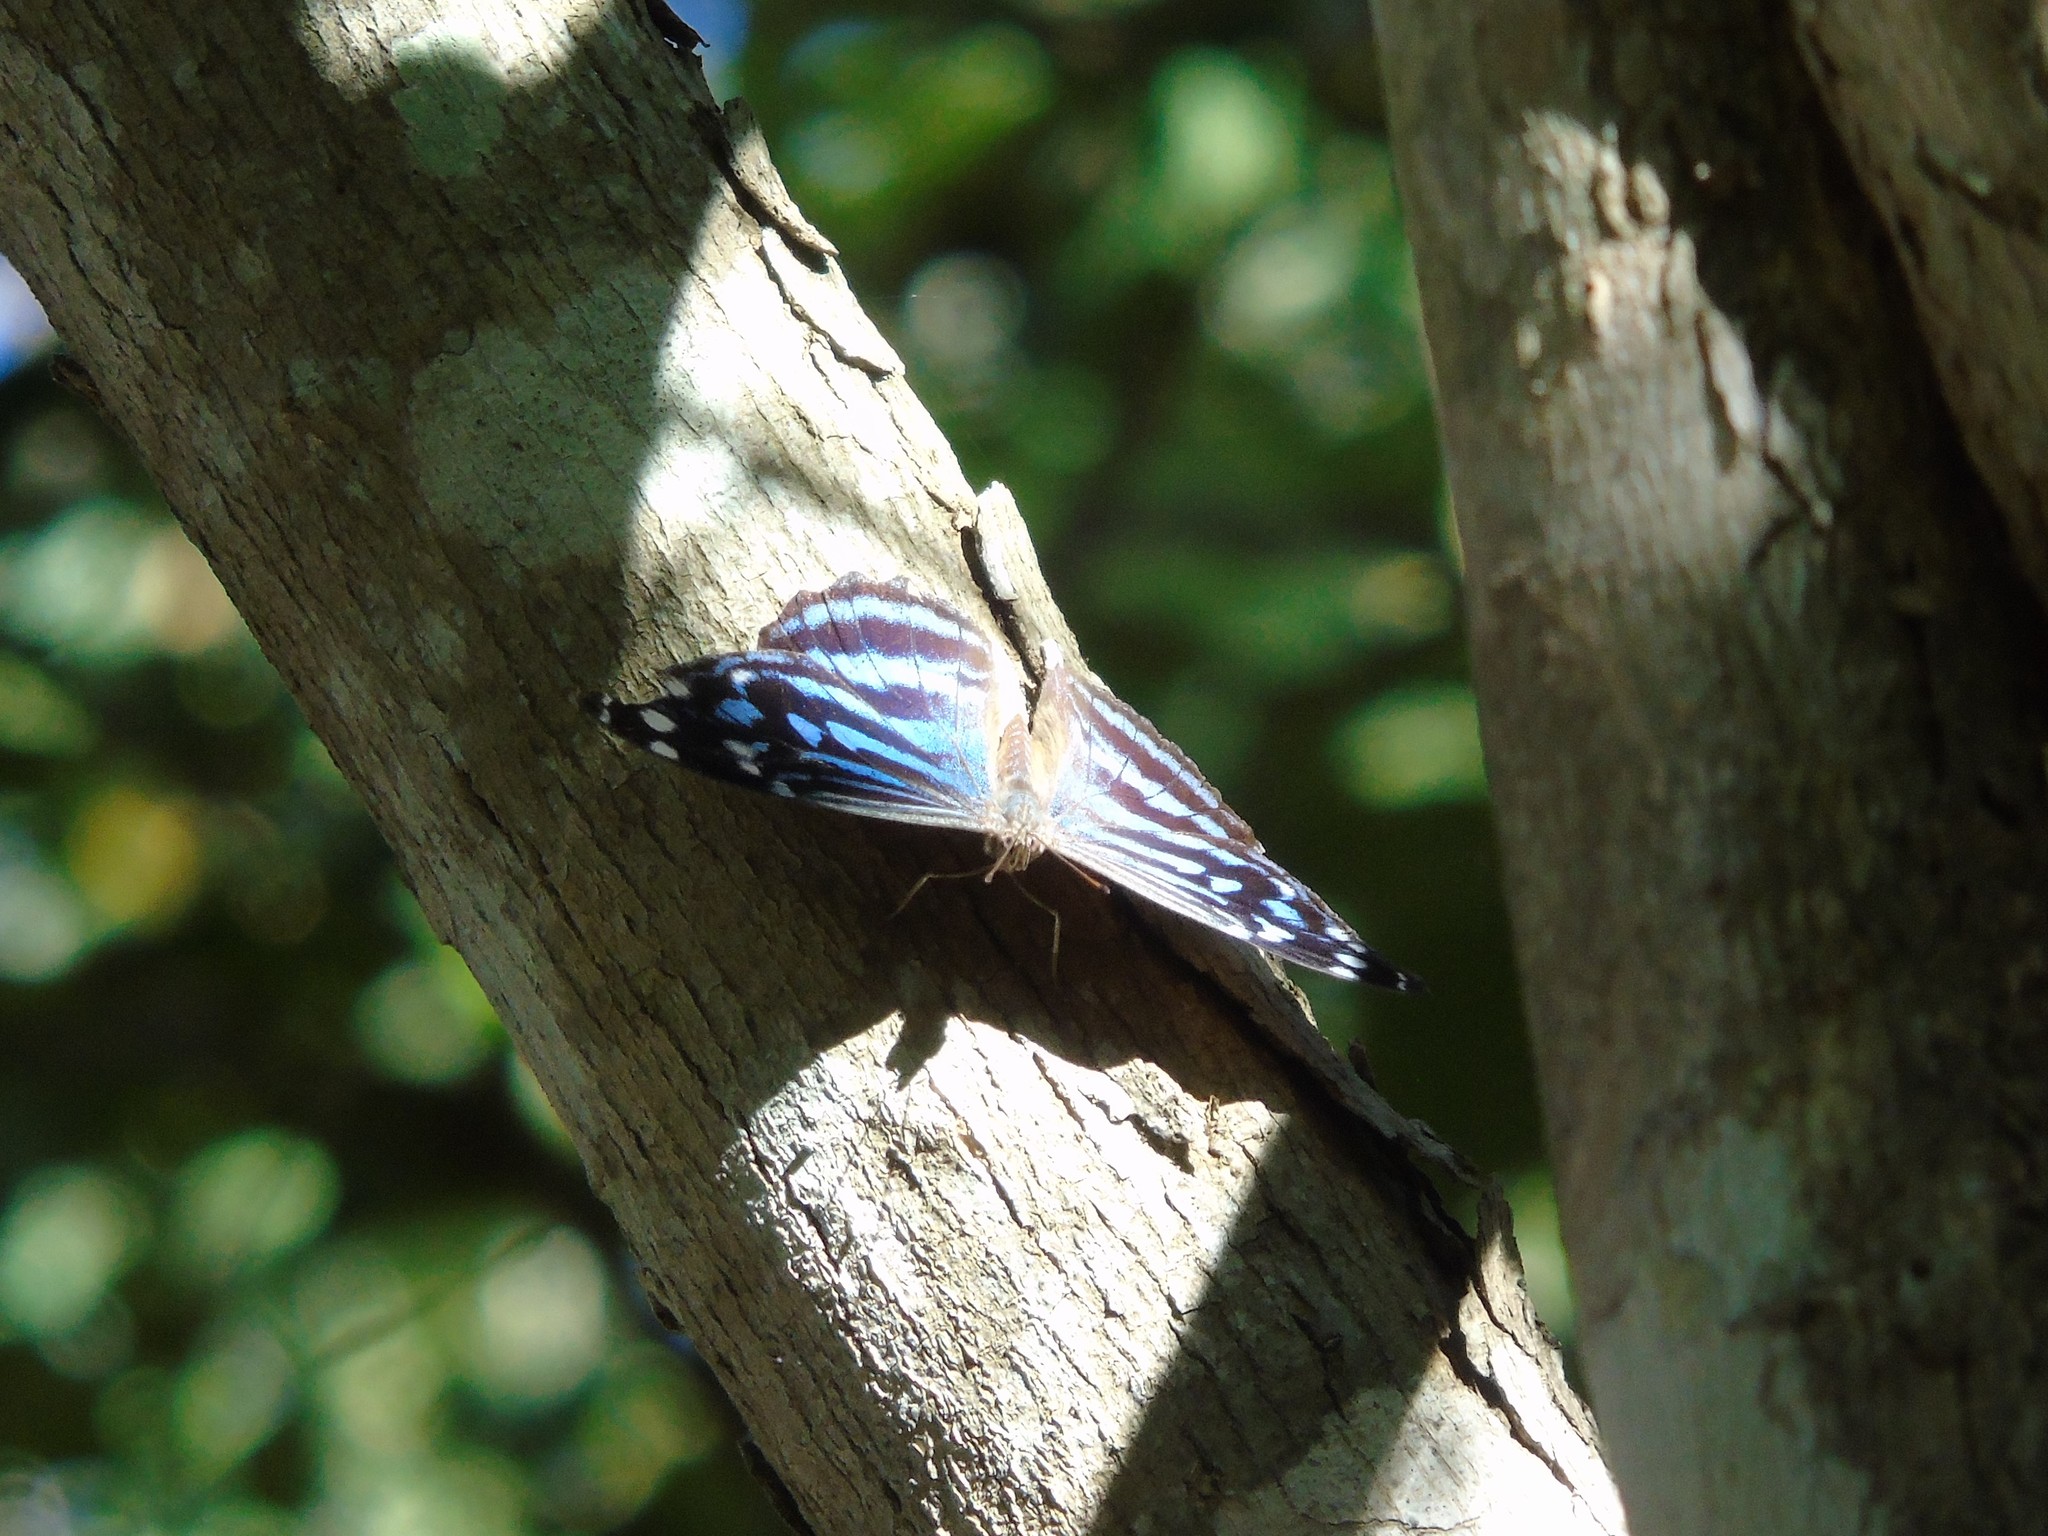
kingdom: Animalia
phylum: Arthropoda
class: Insecta
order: Lepidoptera
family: Nymphalidae
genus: Myscelia
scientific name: Myscelia ethusa
